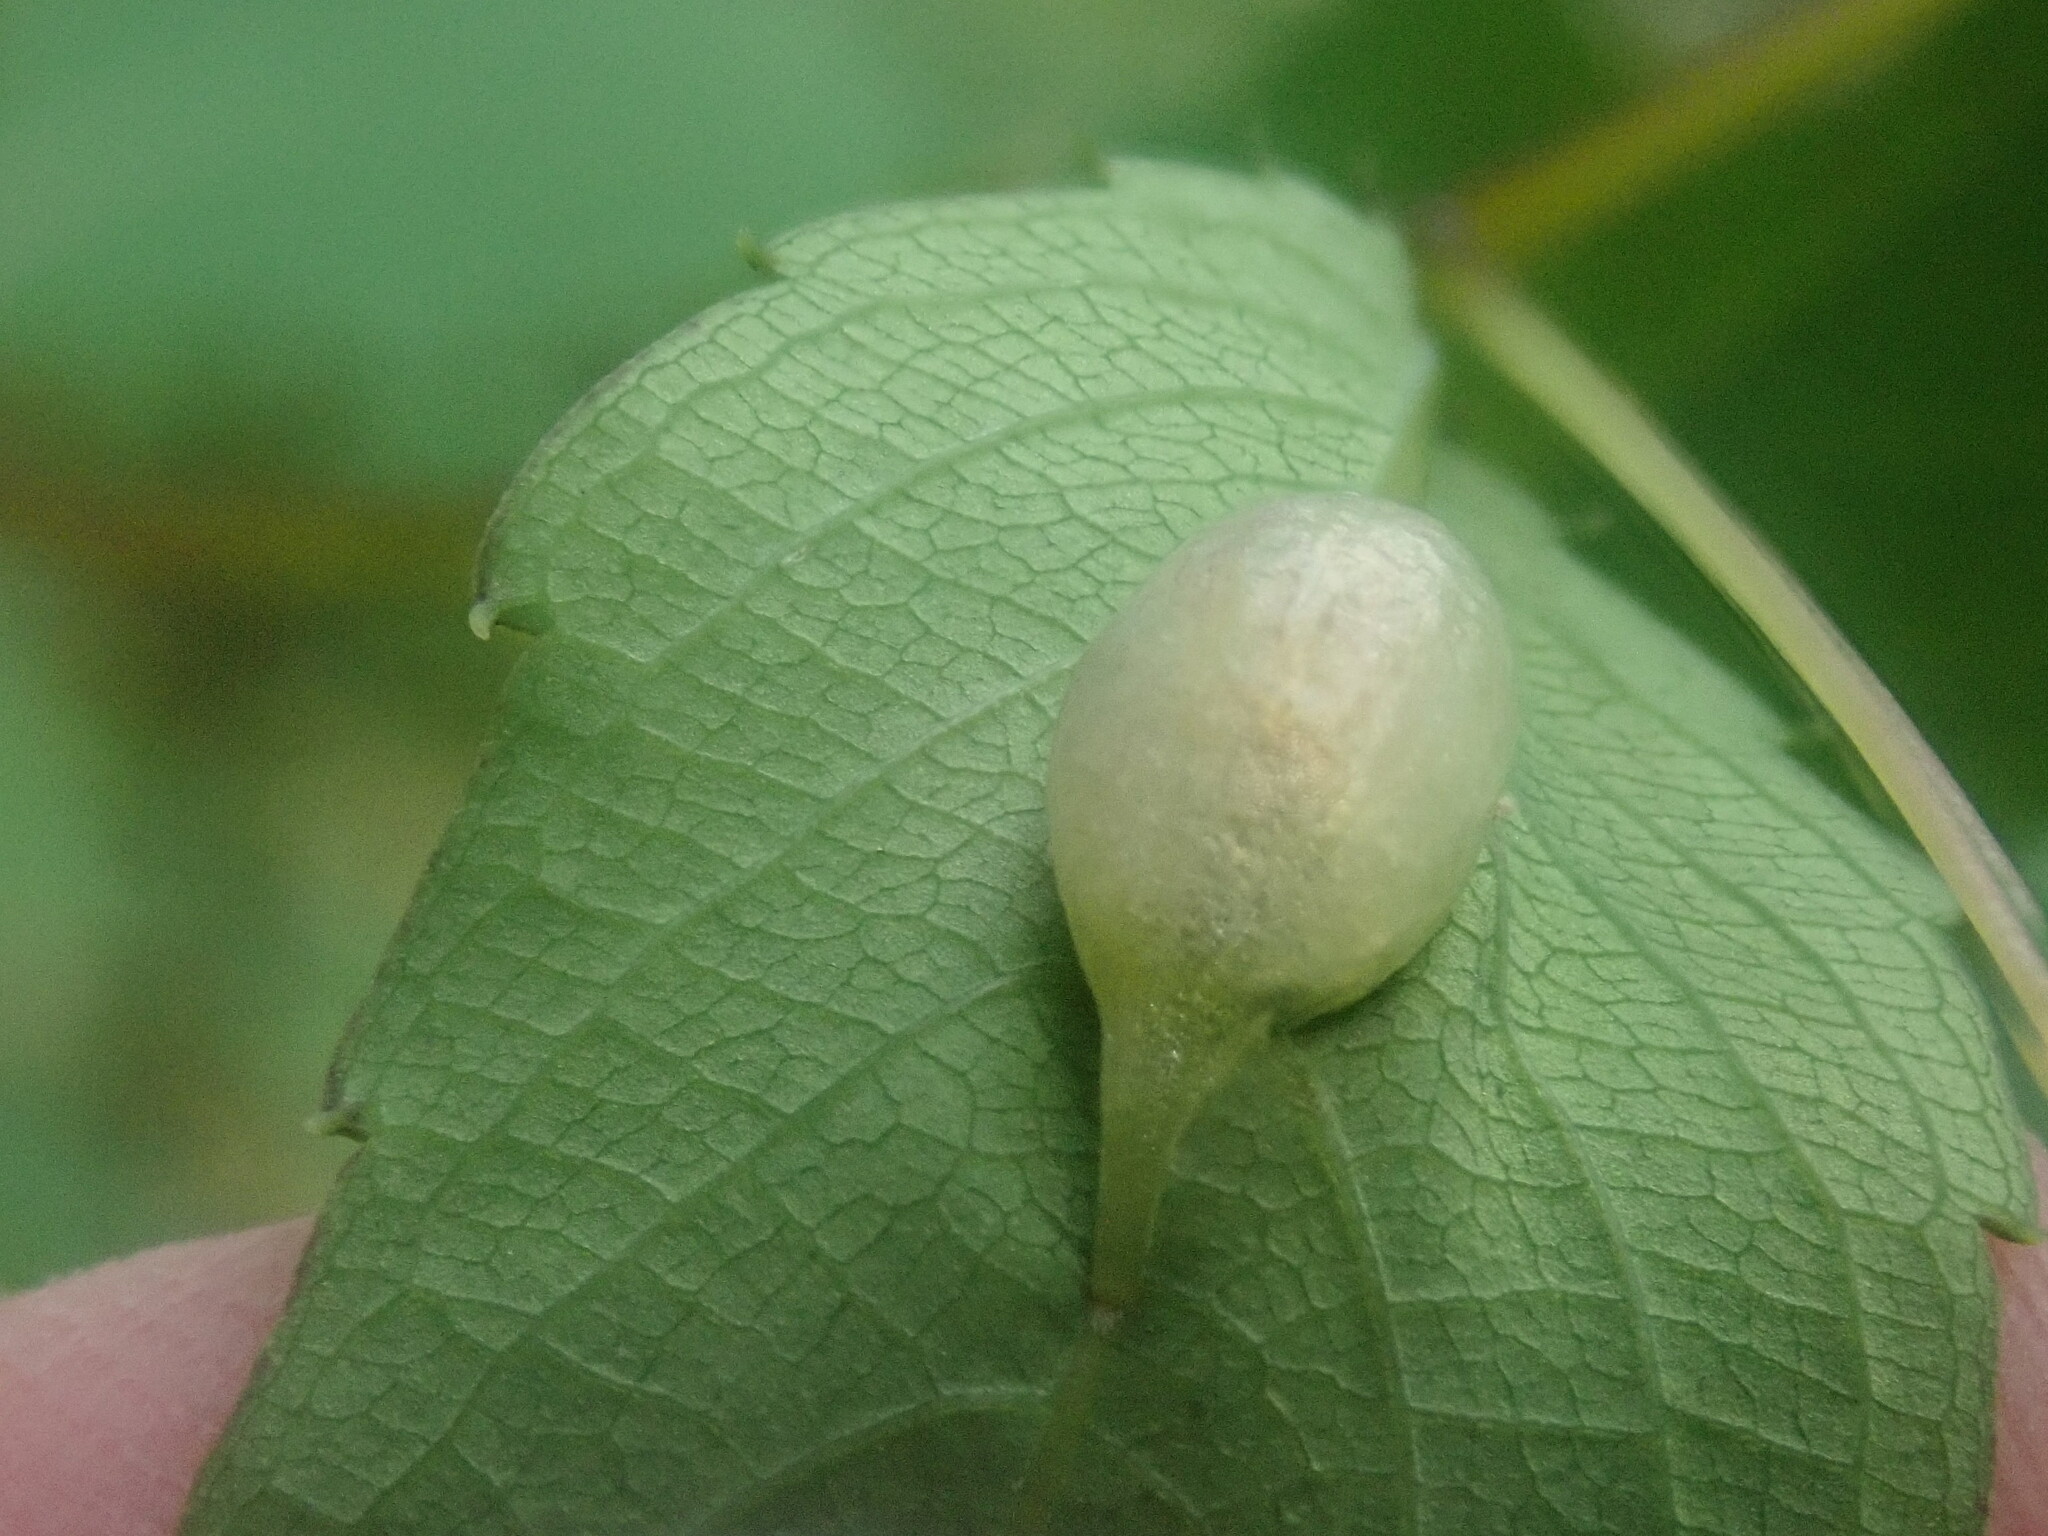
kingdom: Animalia
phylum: Arthropoda
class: Insecta
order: Diptera
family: Cecidomyiidae
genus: Neolasioptera
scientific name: Neolasioptera impatientifolia
